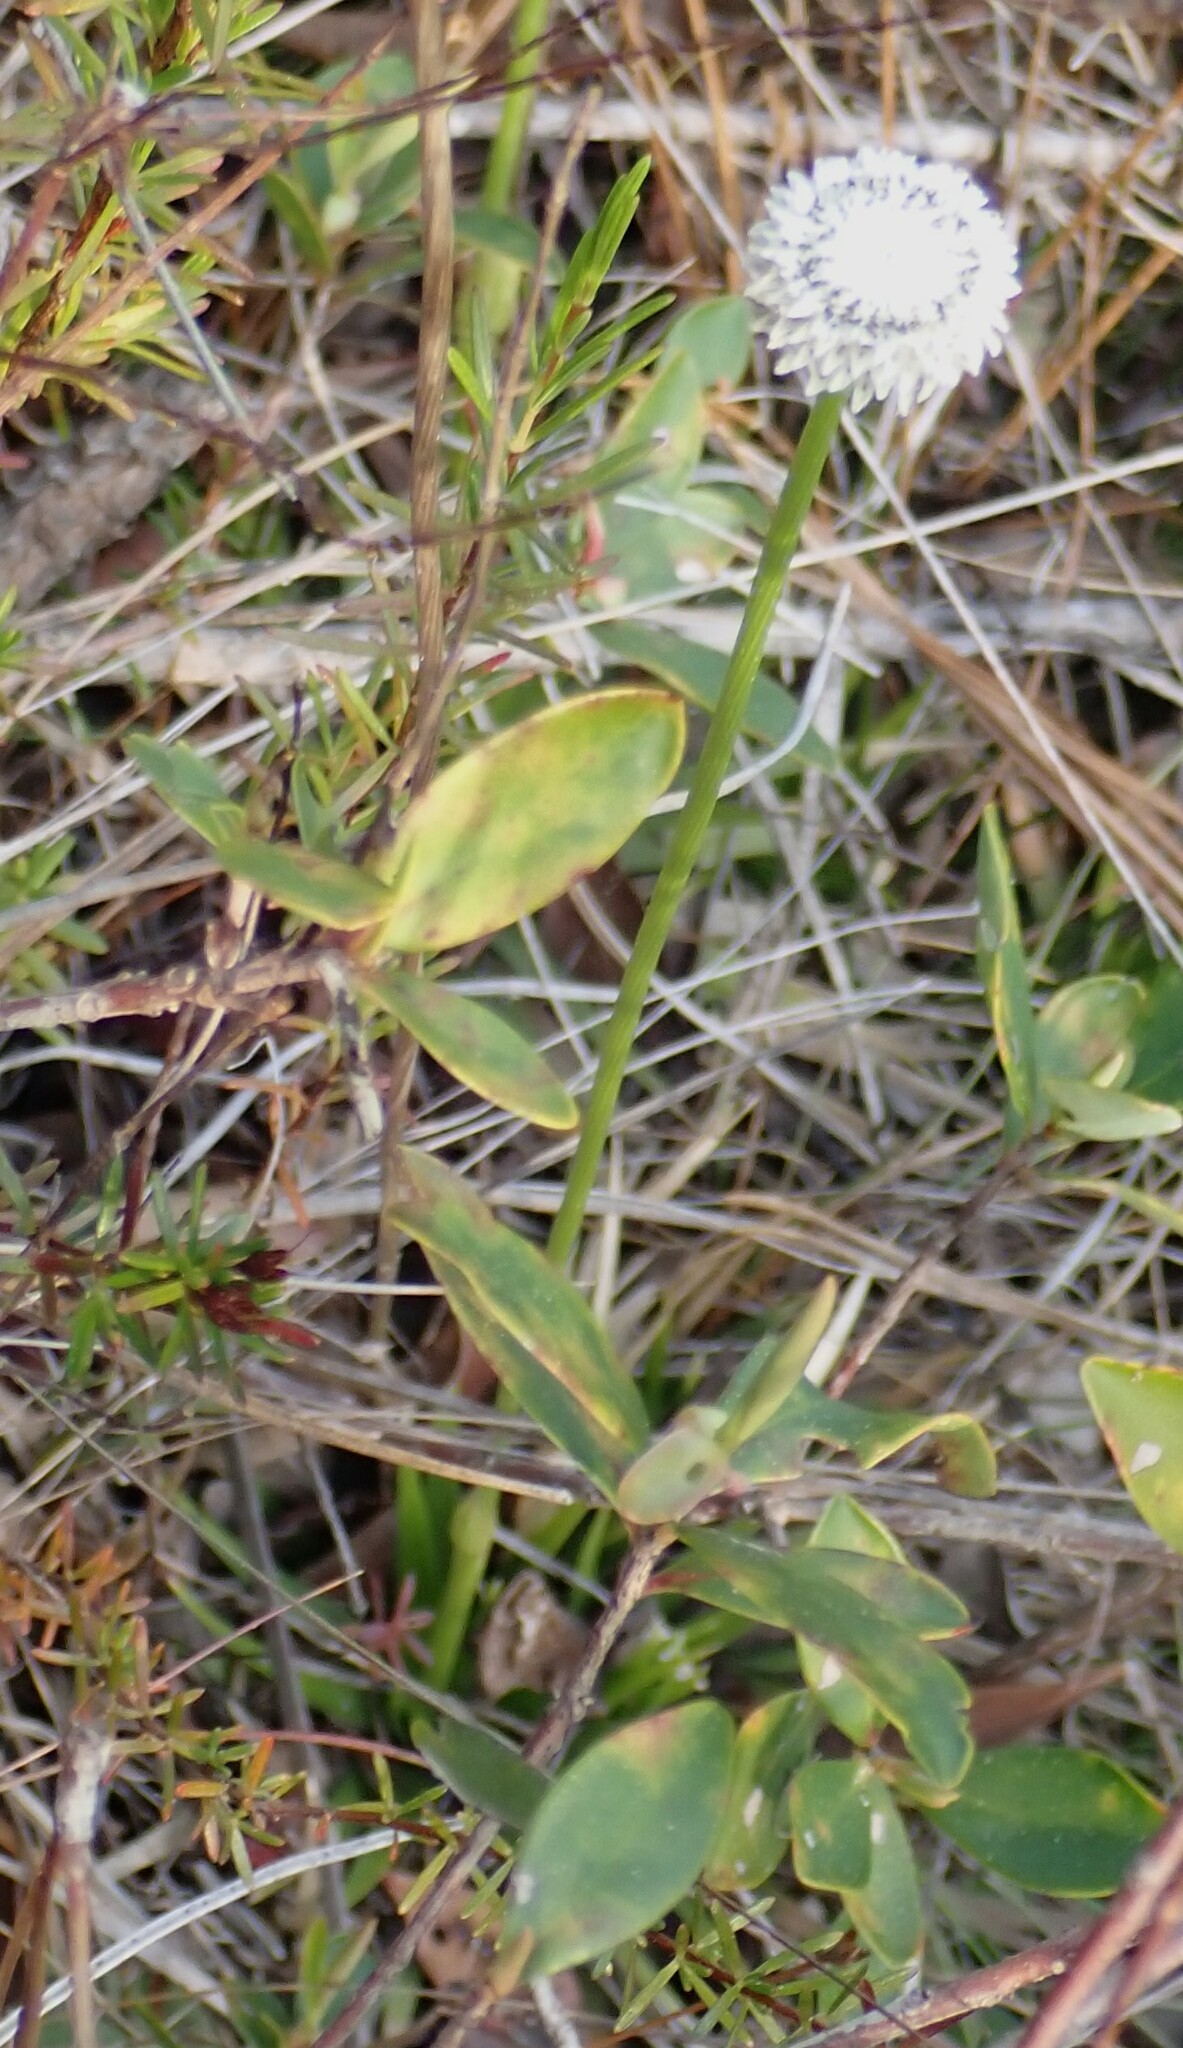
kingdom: Plantae
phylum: Tracheophyta
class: Liliopsida
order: Poales
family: Eriocaulaceae
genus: Eriocaulon
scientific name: Eriocaulon compressum
